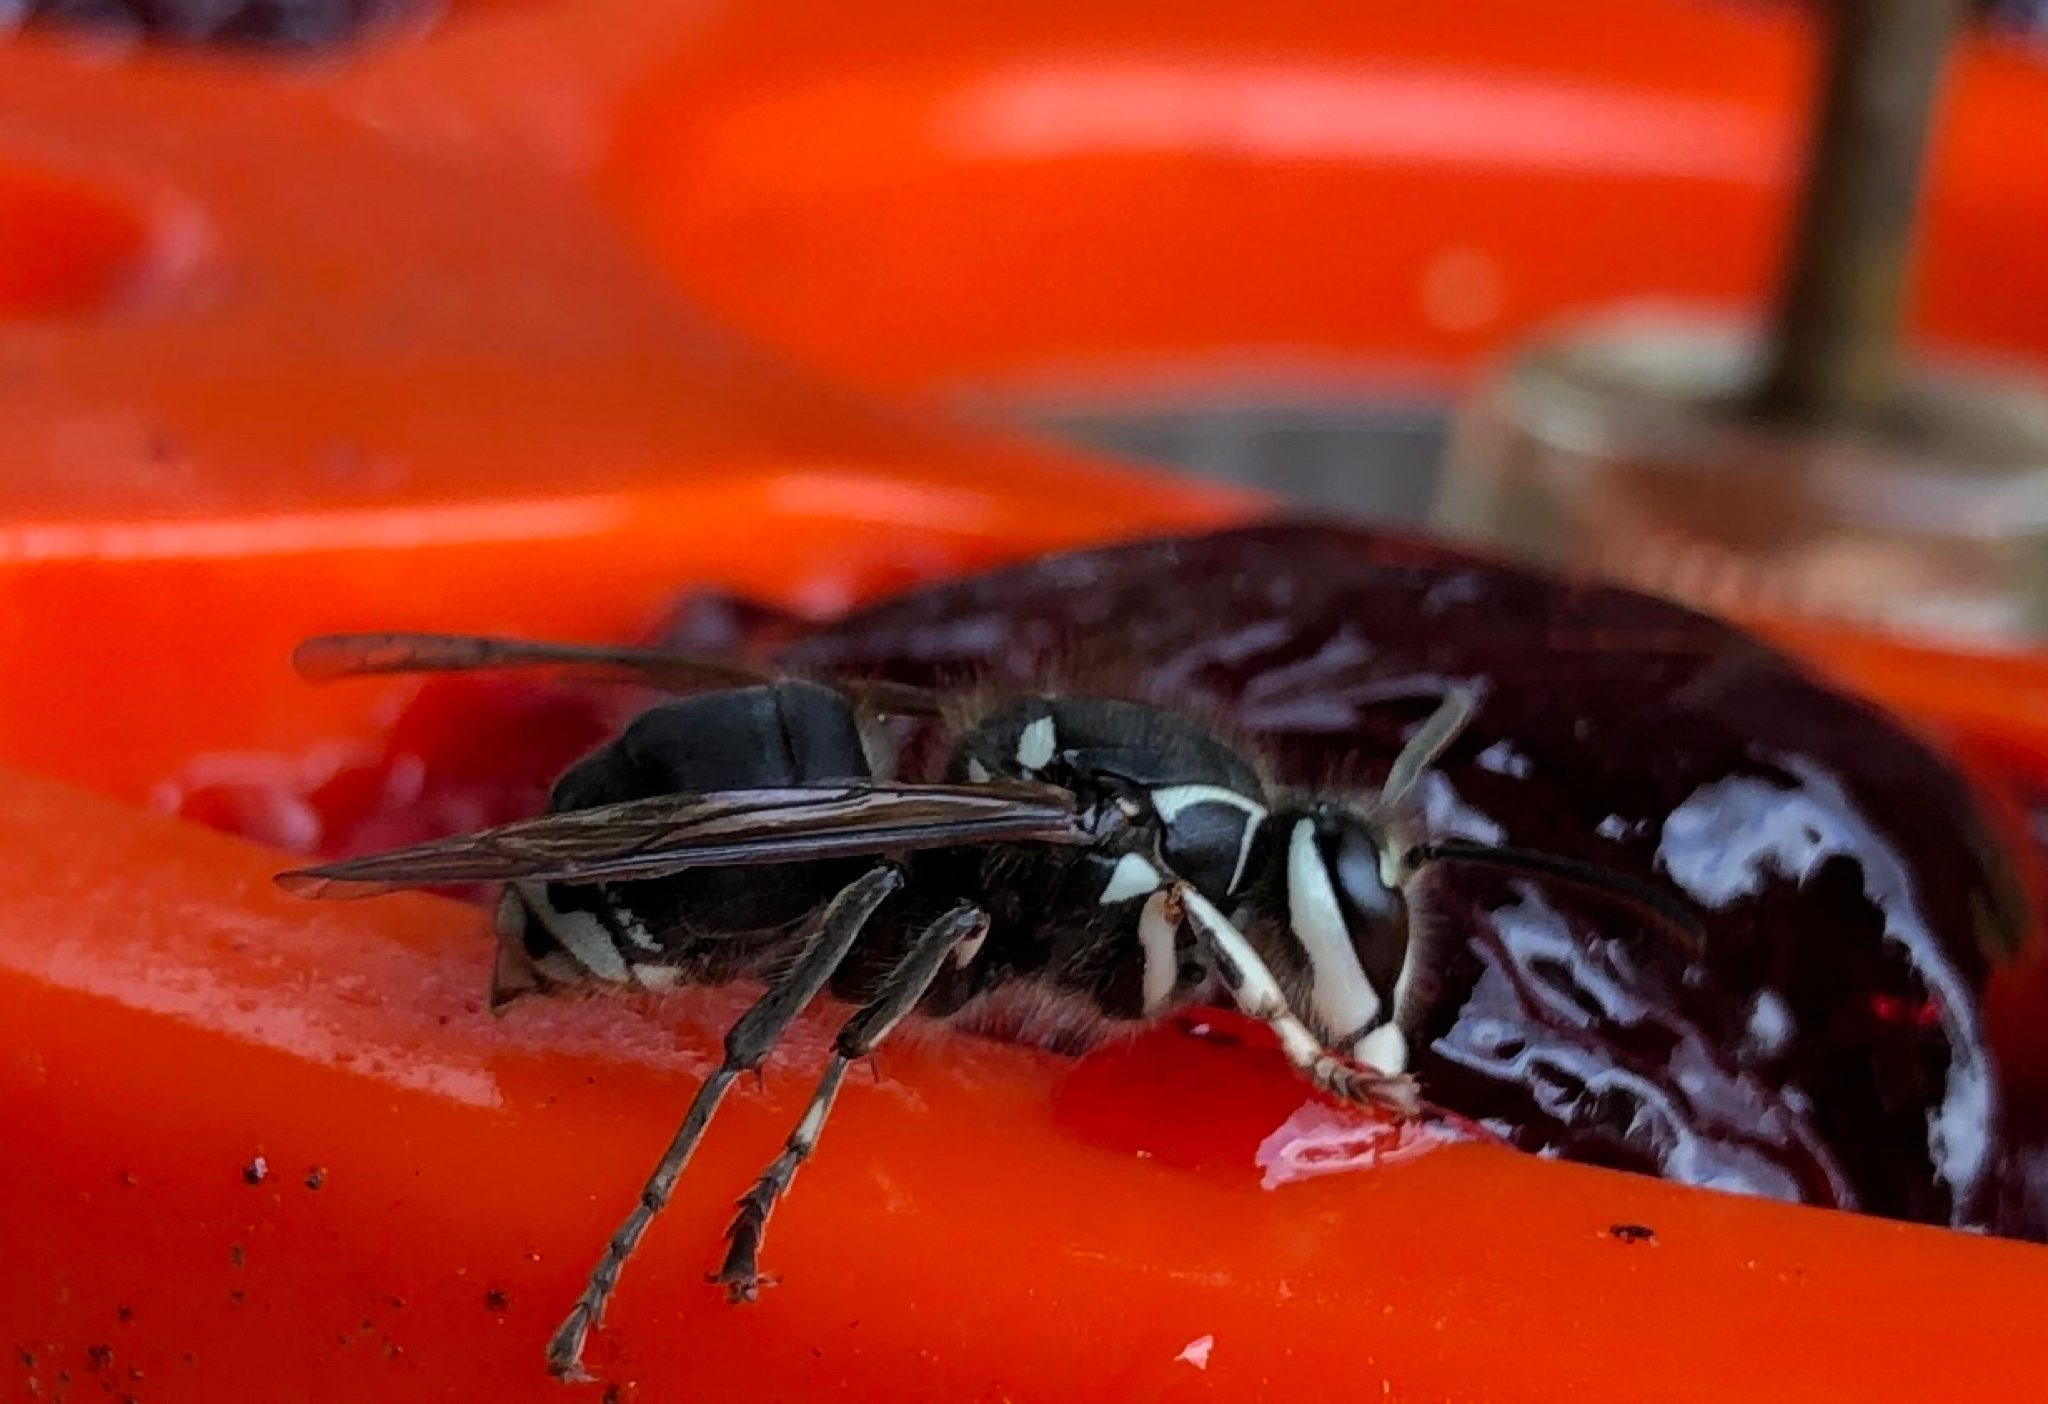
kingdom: Animalia
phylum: Arthropoda
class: Insecta
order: Hymenoptera
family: Vespidae
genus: Dolichovespula
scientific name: Dolichovespula maculata
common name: Bald-faced hornet
